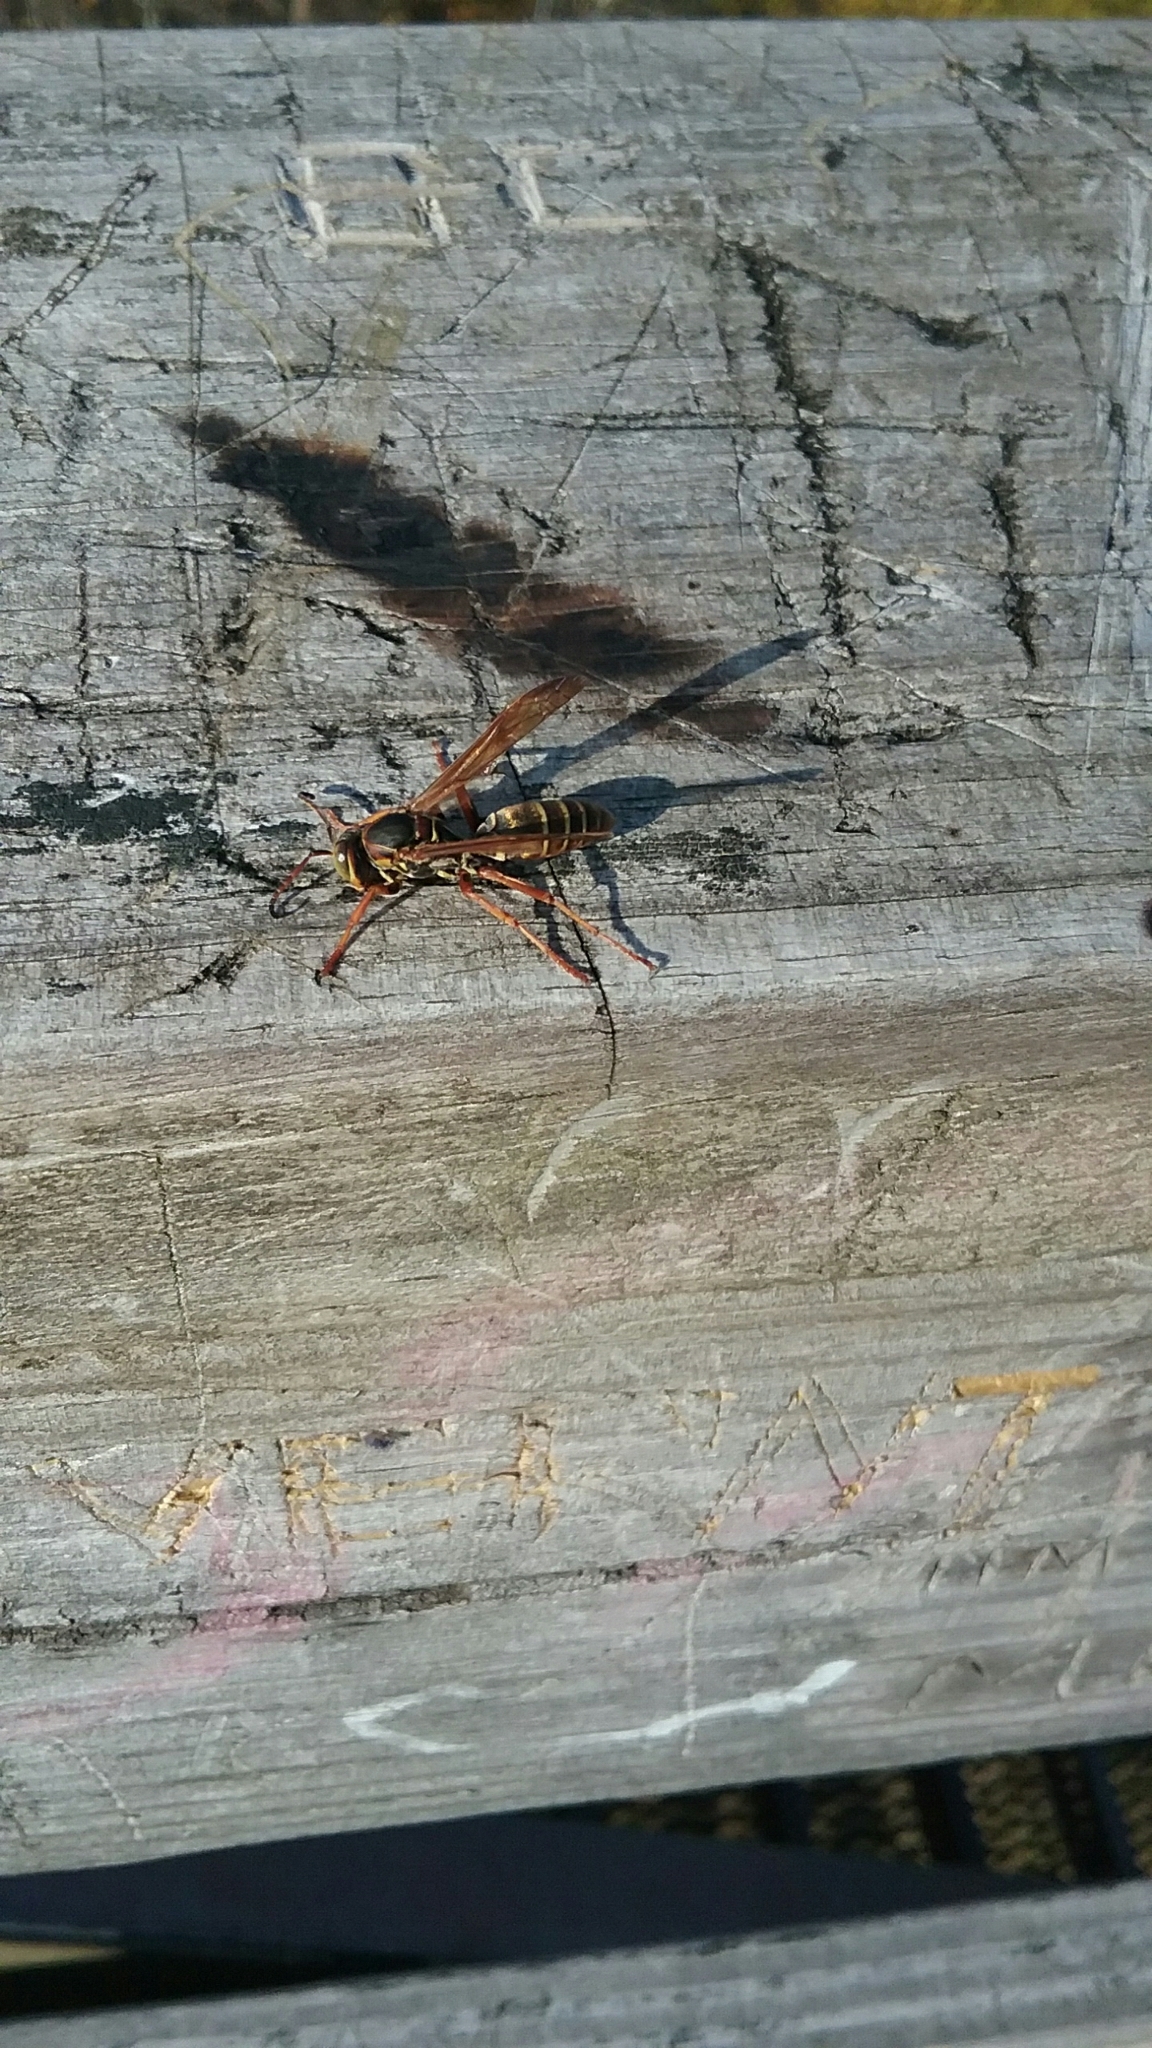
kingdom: Animalia
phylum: Arthropoda
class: Insecta
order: Hymenoptera
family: Eumenidae
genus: Polistes
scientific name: Polistes fuscatus
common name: Dark paper wasp
